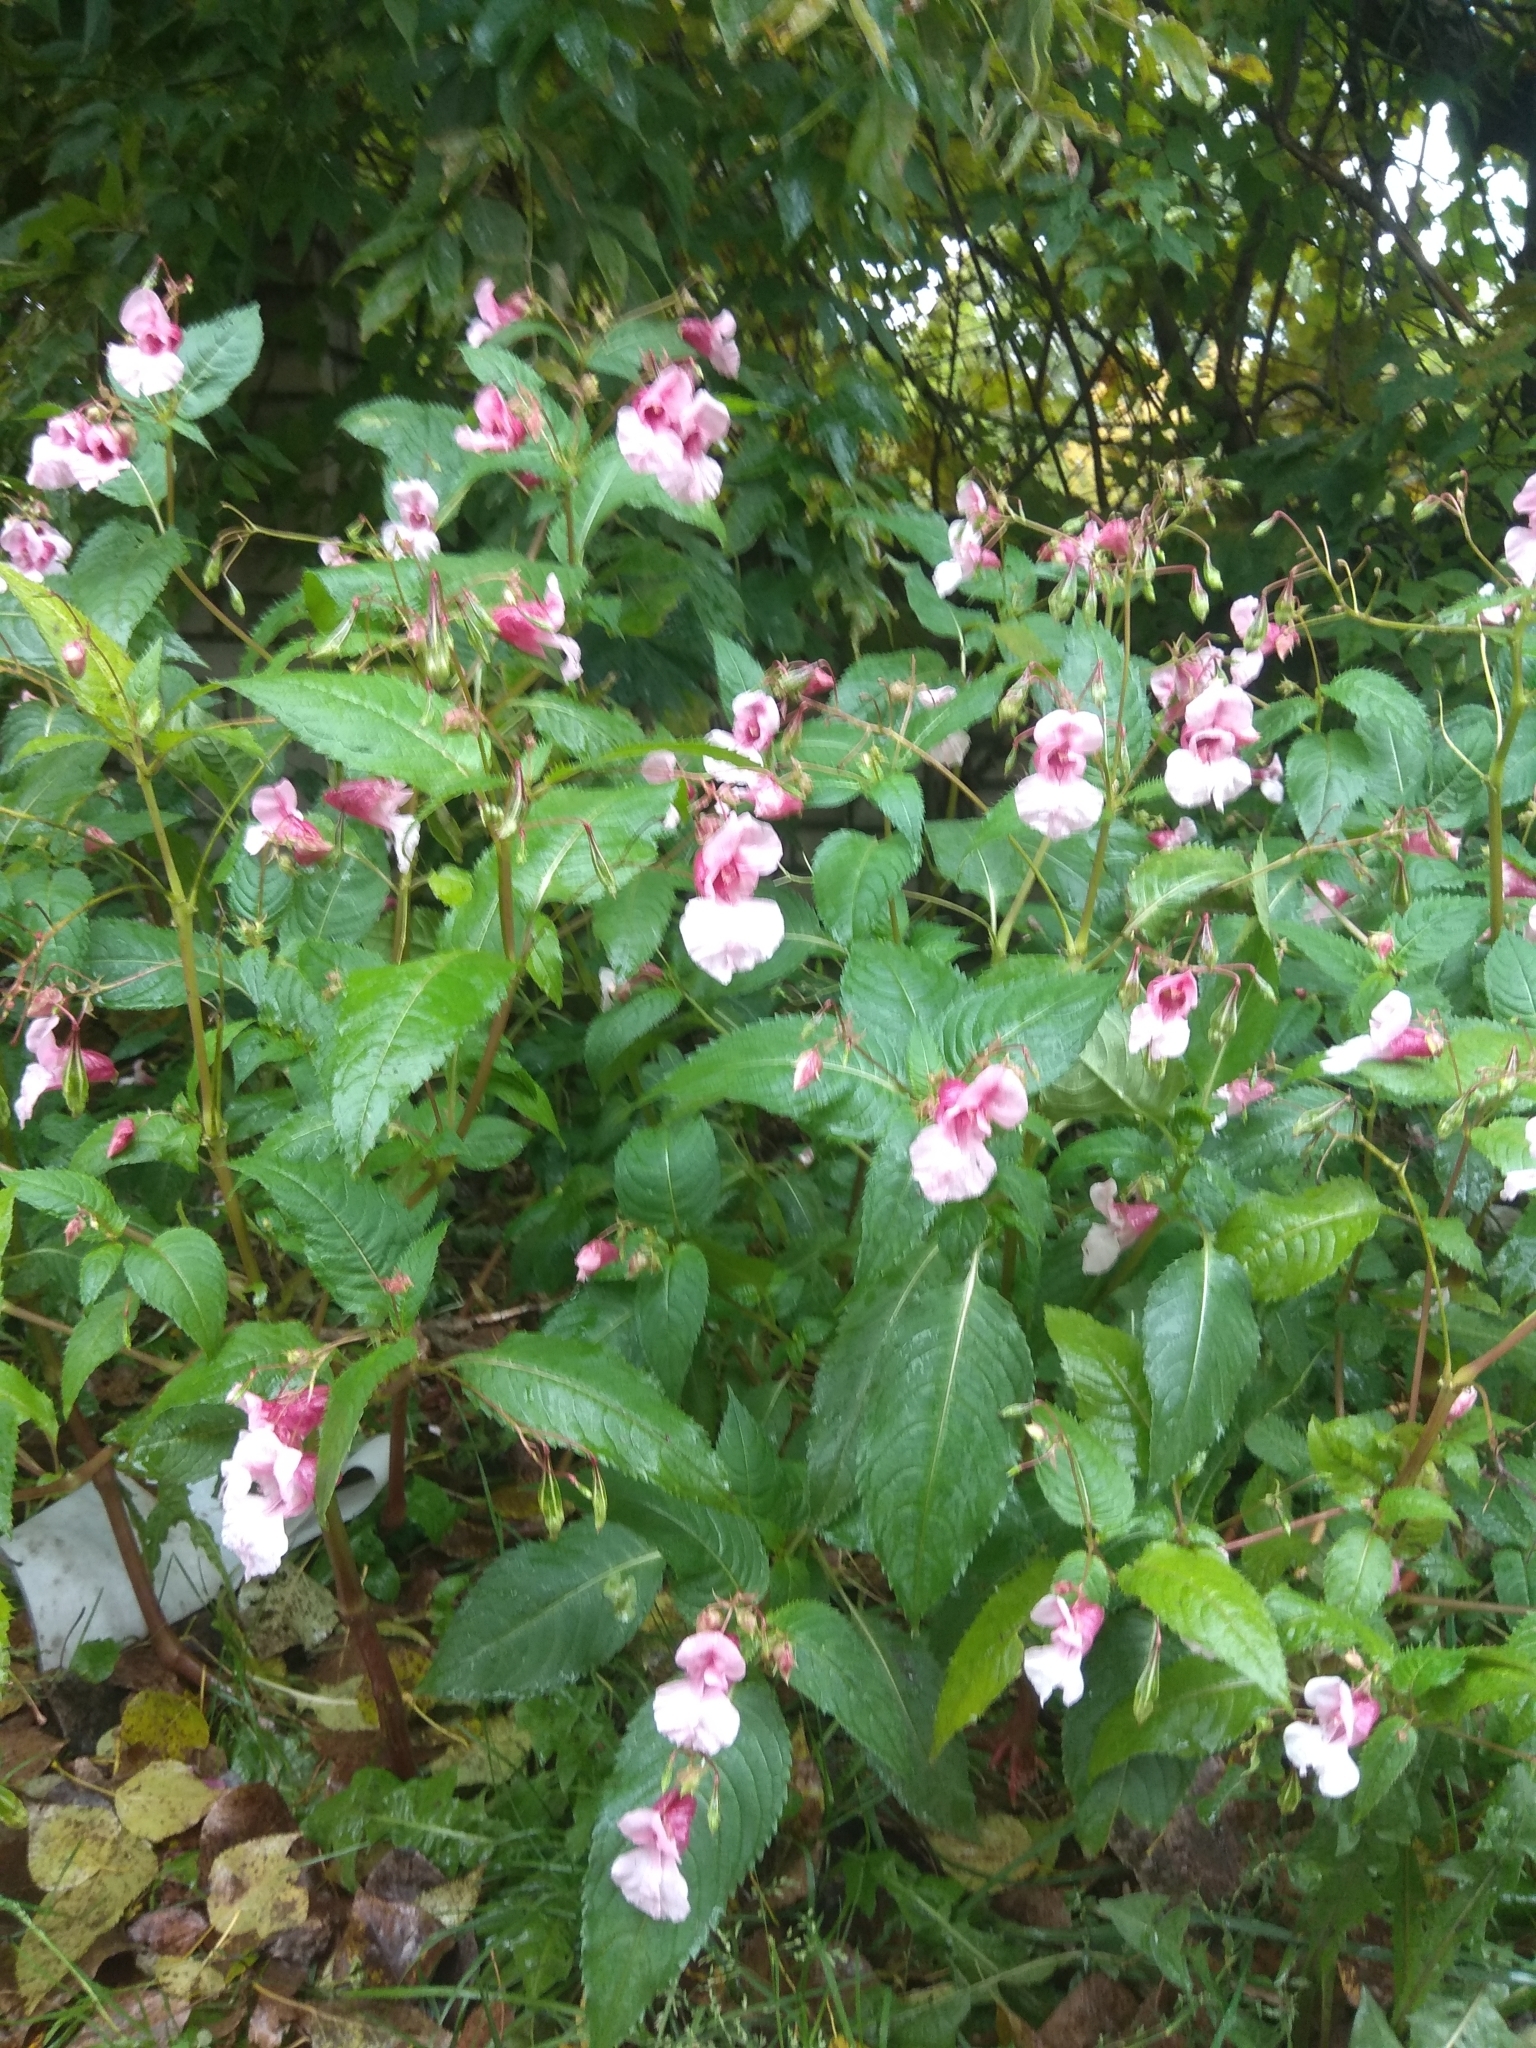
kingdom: Plantae
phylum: Tracheophyta
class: Magnoliopsida
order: Ericales
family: Balsaminaceae
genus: Impatiens
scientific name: Impatiens glandulifera
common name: Himalayan balsam
